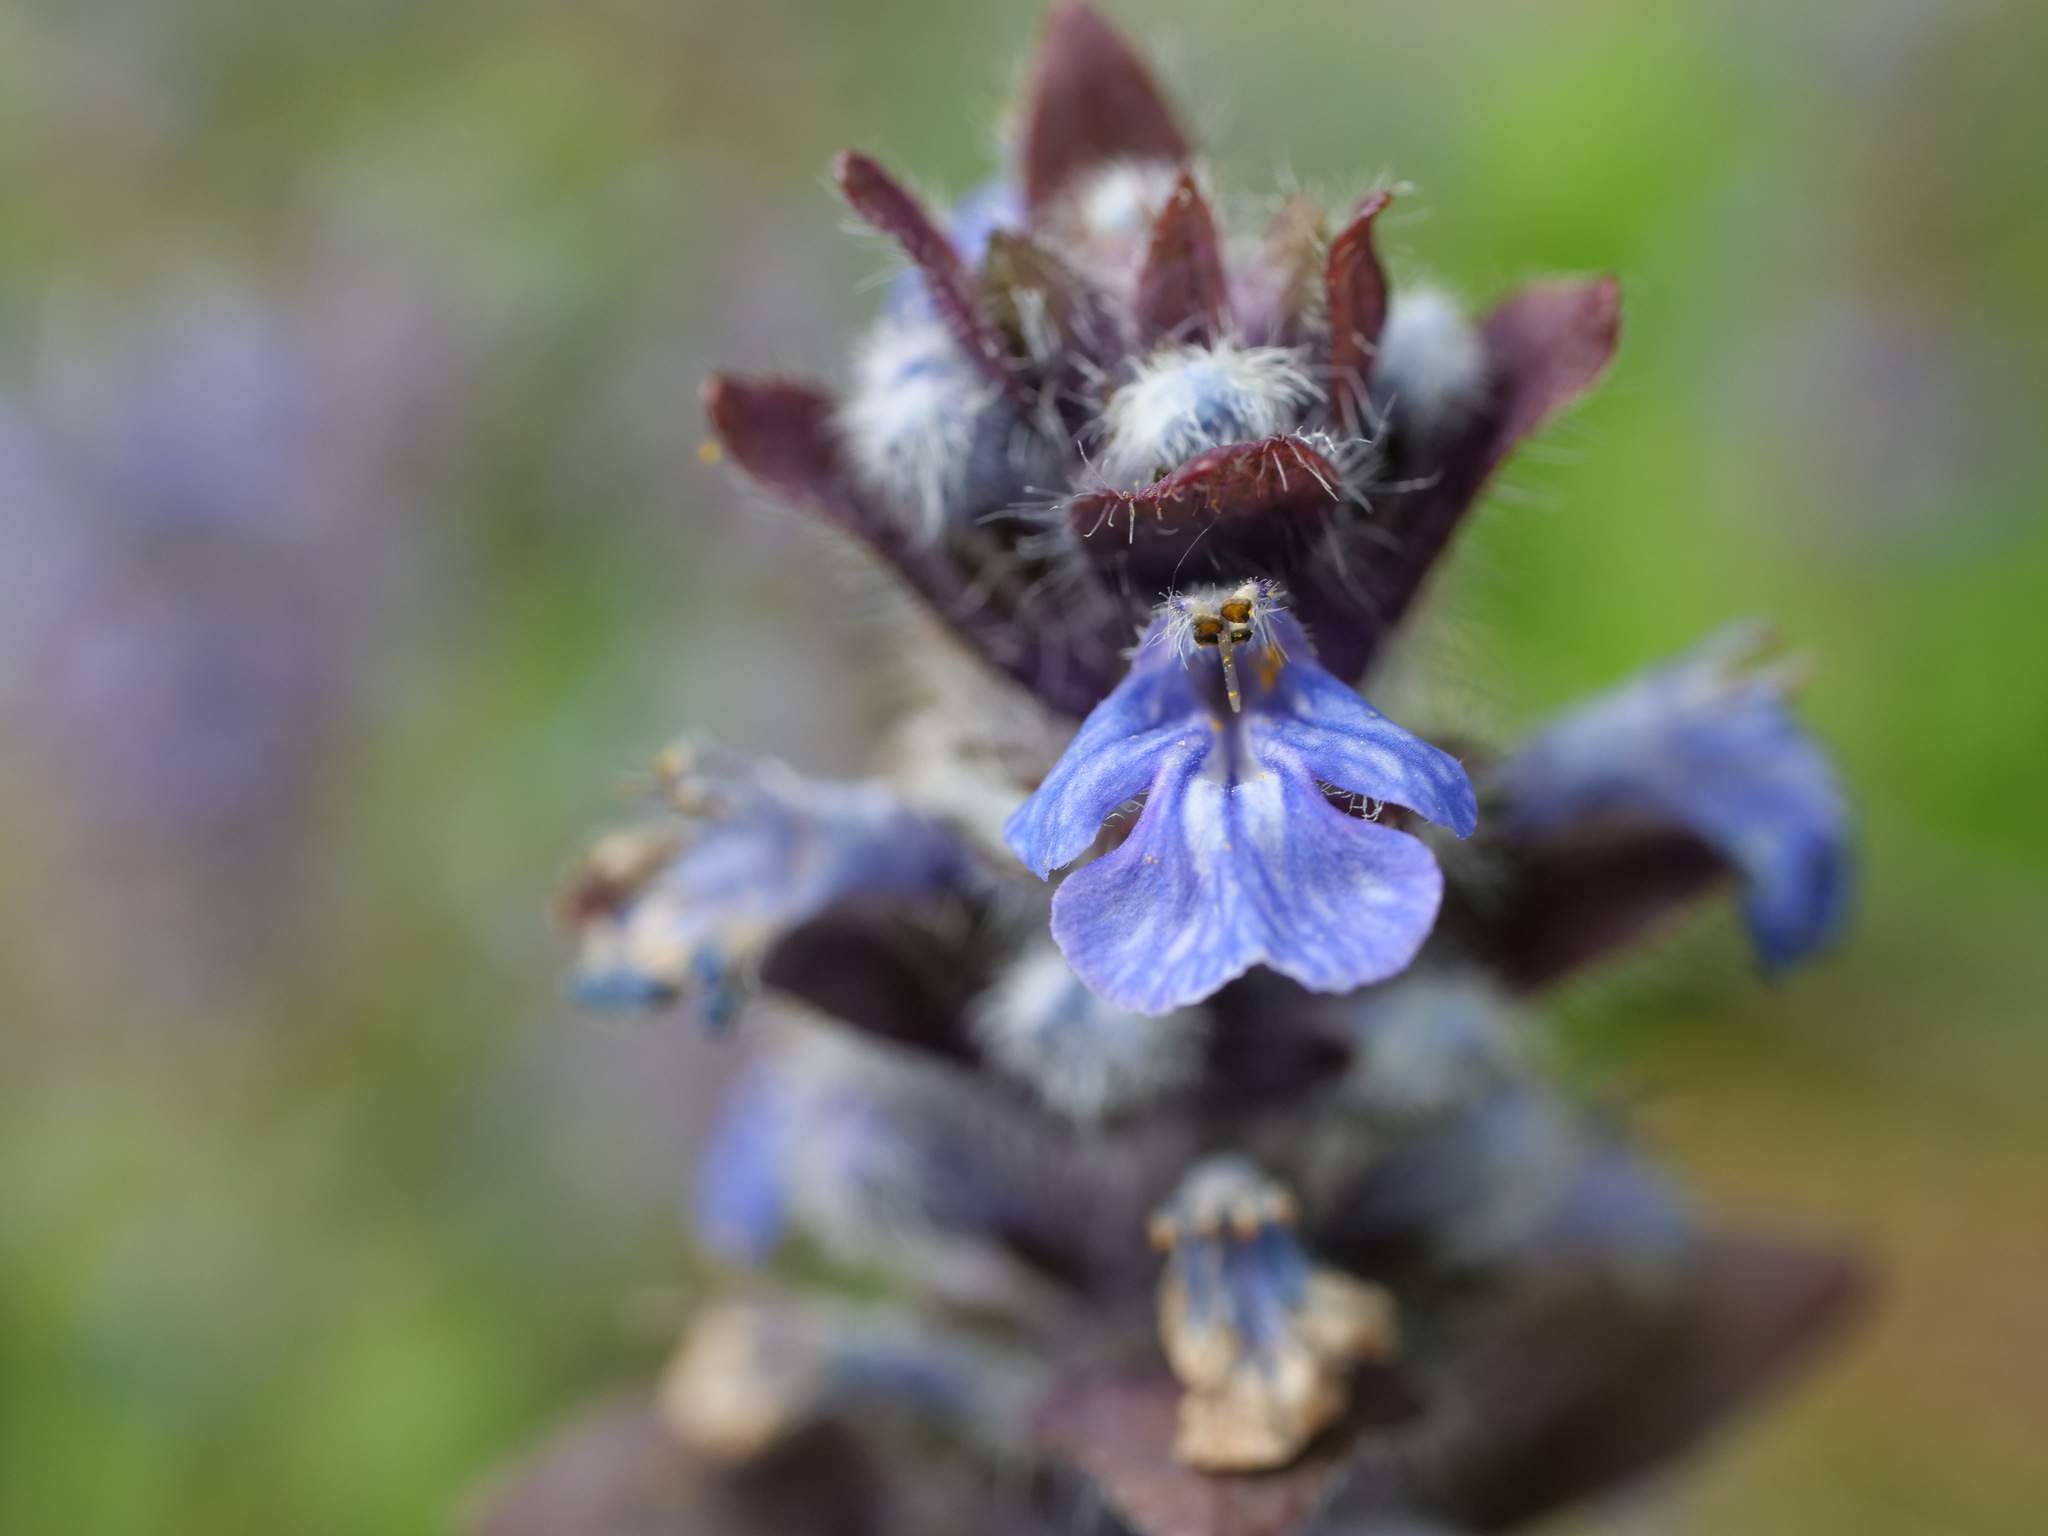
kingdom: Plantae
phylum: Tracheophyta
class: Magnoliopsida
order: Lamiales
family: Lamiaceae
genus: Ajuga
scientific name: Ajuga reptans
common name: Bugle
